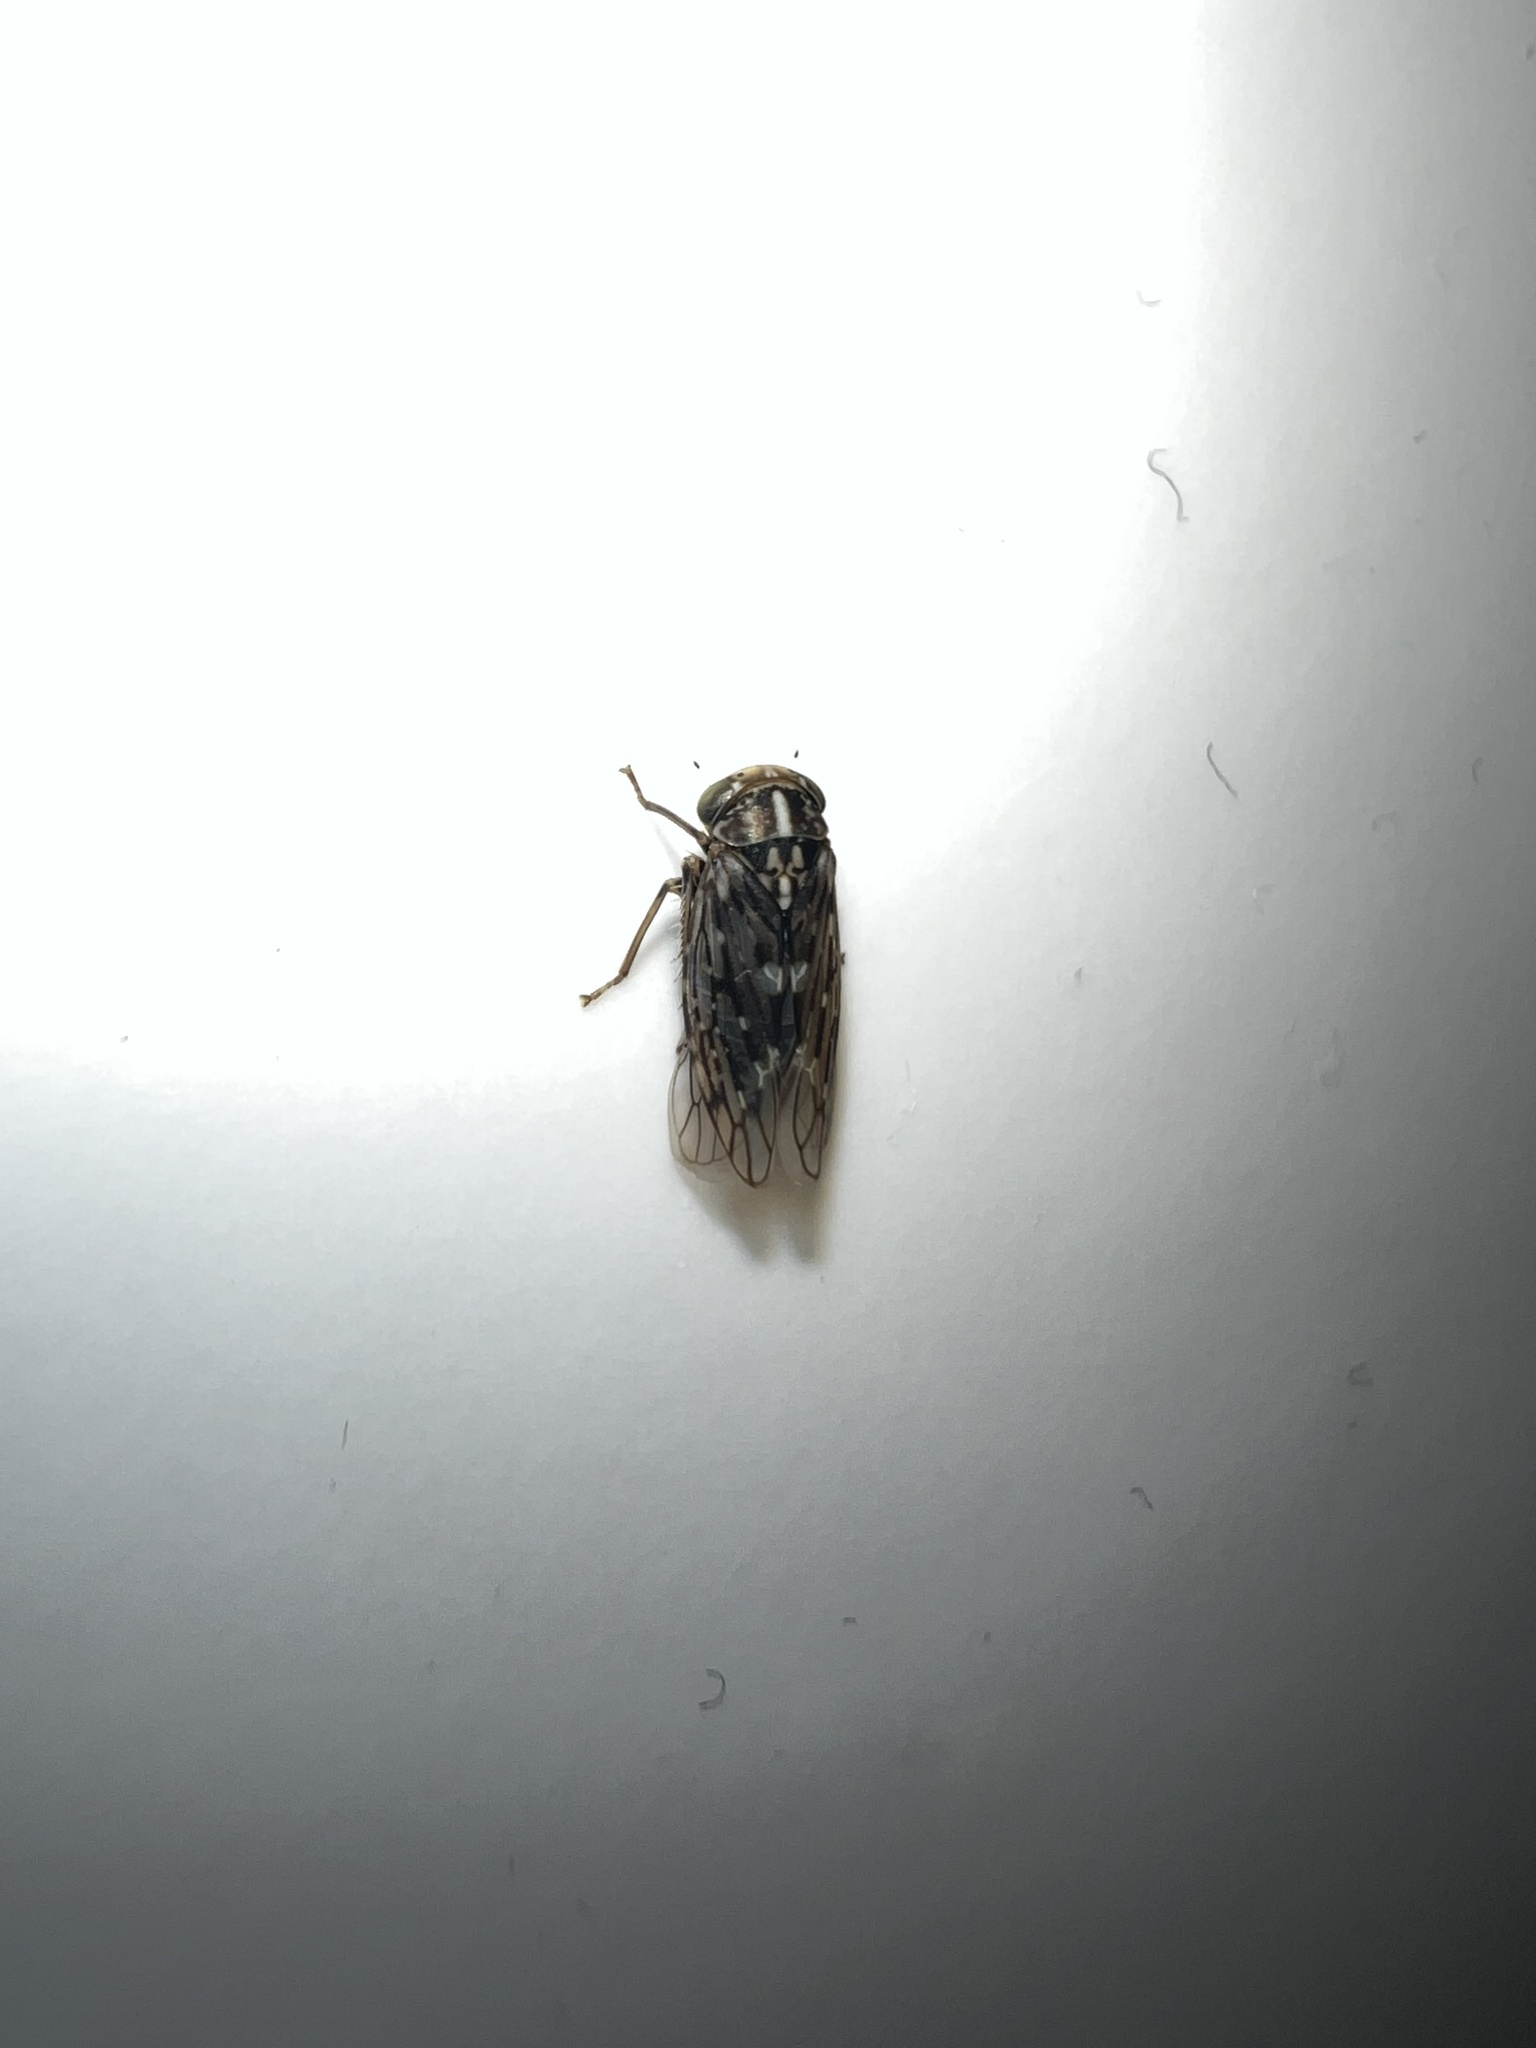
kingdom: Animalia
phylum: Arthropoda
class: Insecta
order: Hemiptera
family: Cicadellidae
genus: Metidiocerus
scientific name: Metidiocerus poecilus
